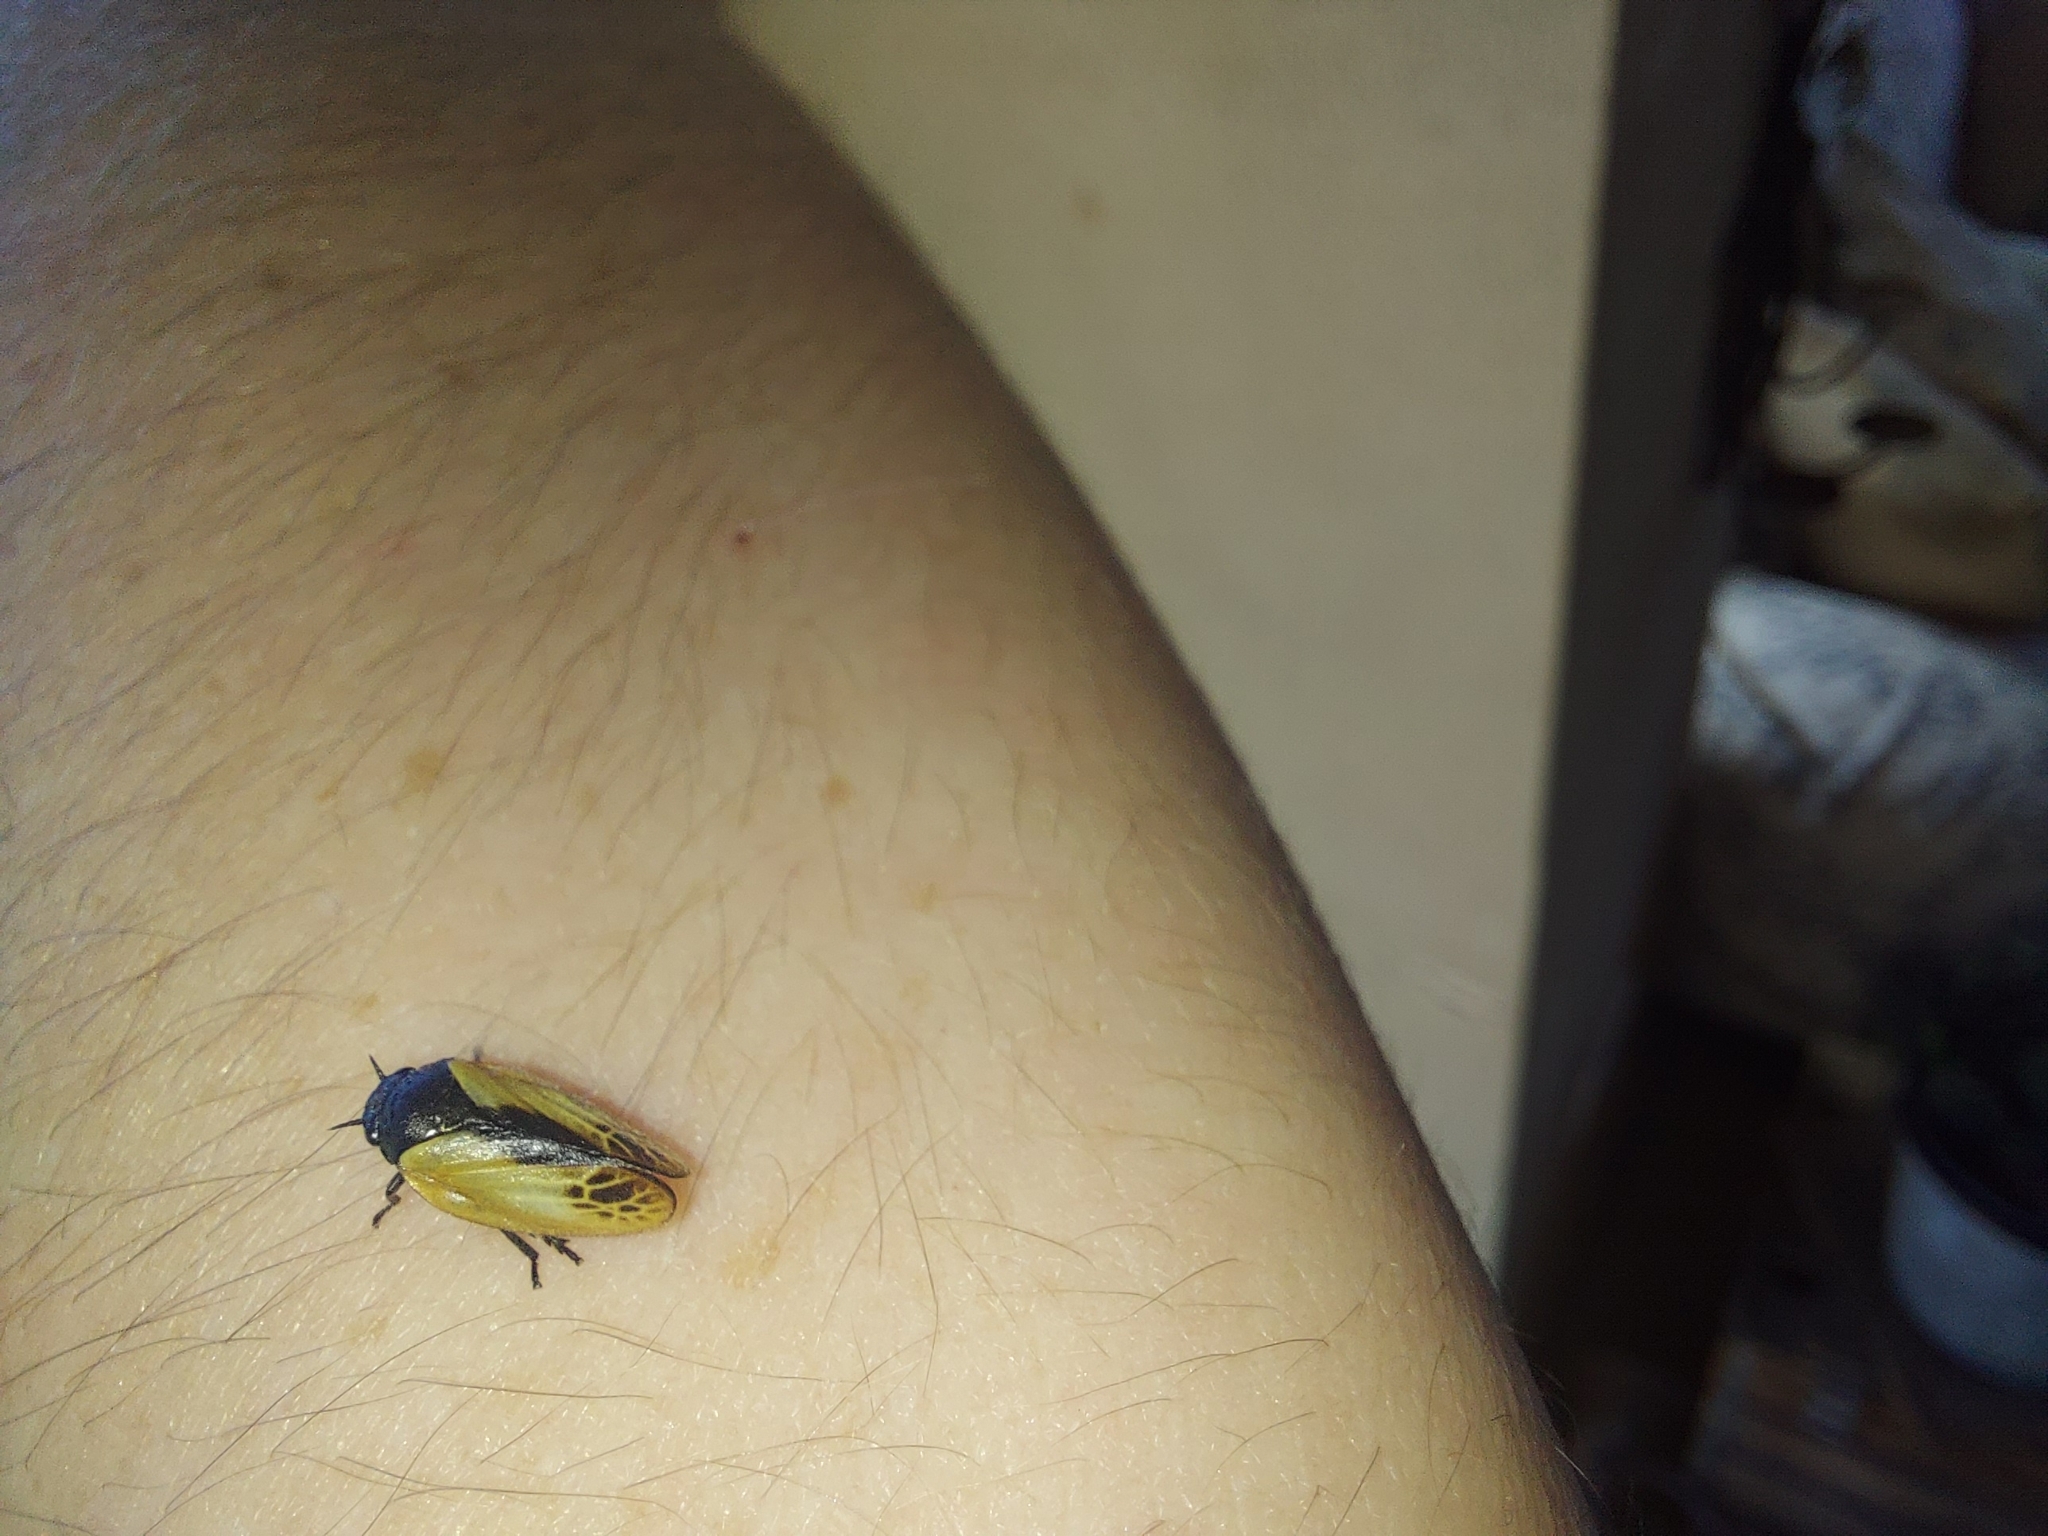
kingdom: Animalia
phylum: Arthropoda
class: Insecta
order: Hemiptera
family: Cercopidae
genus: Rhinaulax
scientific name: Rhinaulax analis
